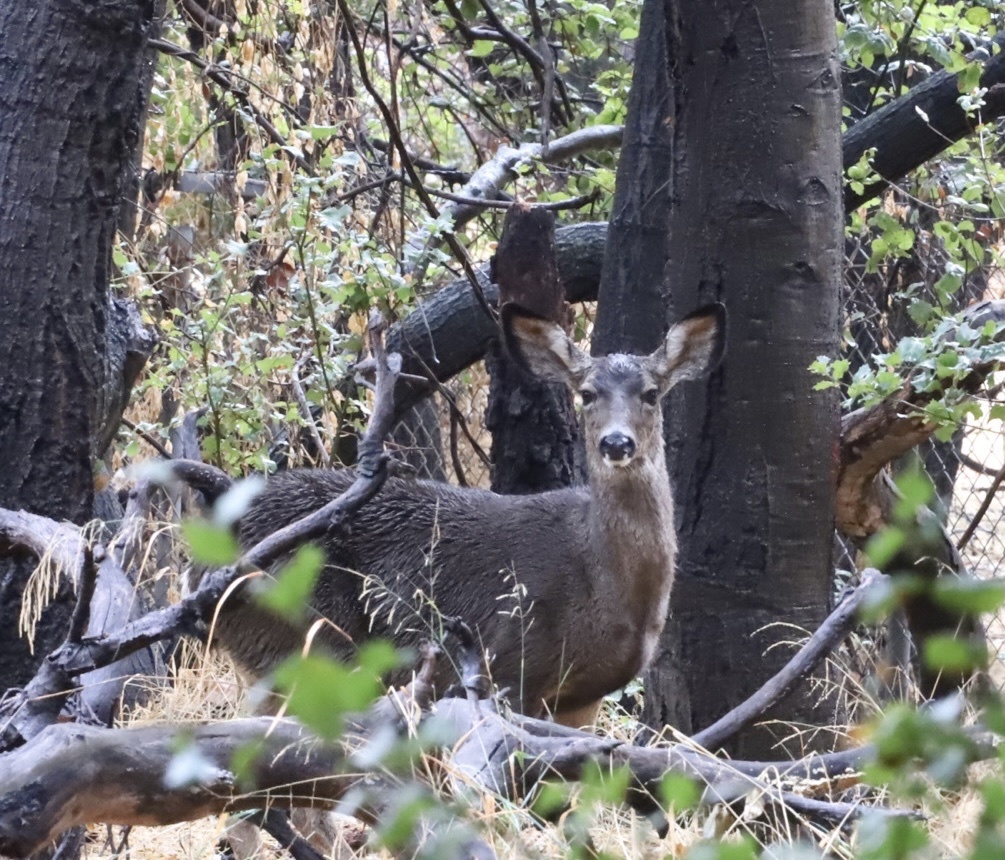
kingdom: Animalia
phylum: Chordata
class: Mammalia
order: Artiodactyla
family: Cervidae
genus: Odocoileus
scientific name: Odocoileus hemionus
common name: Mule deer
